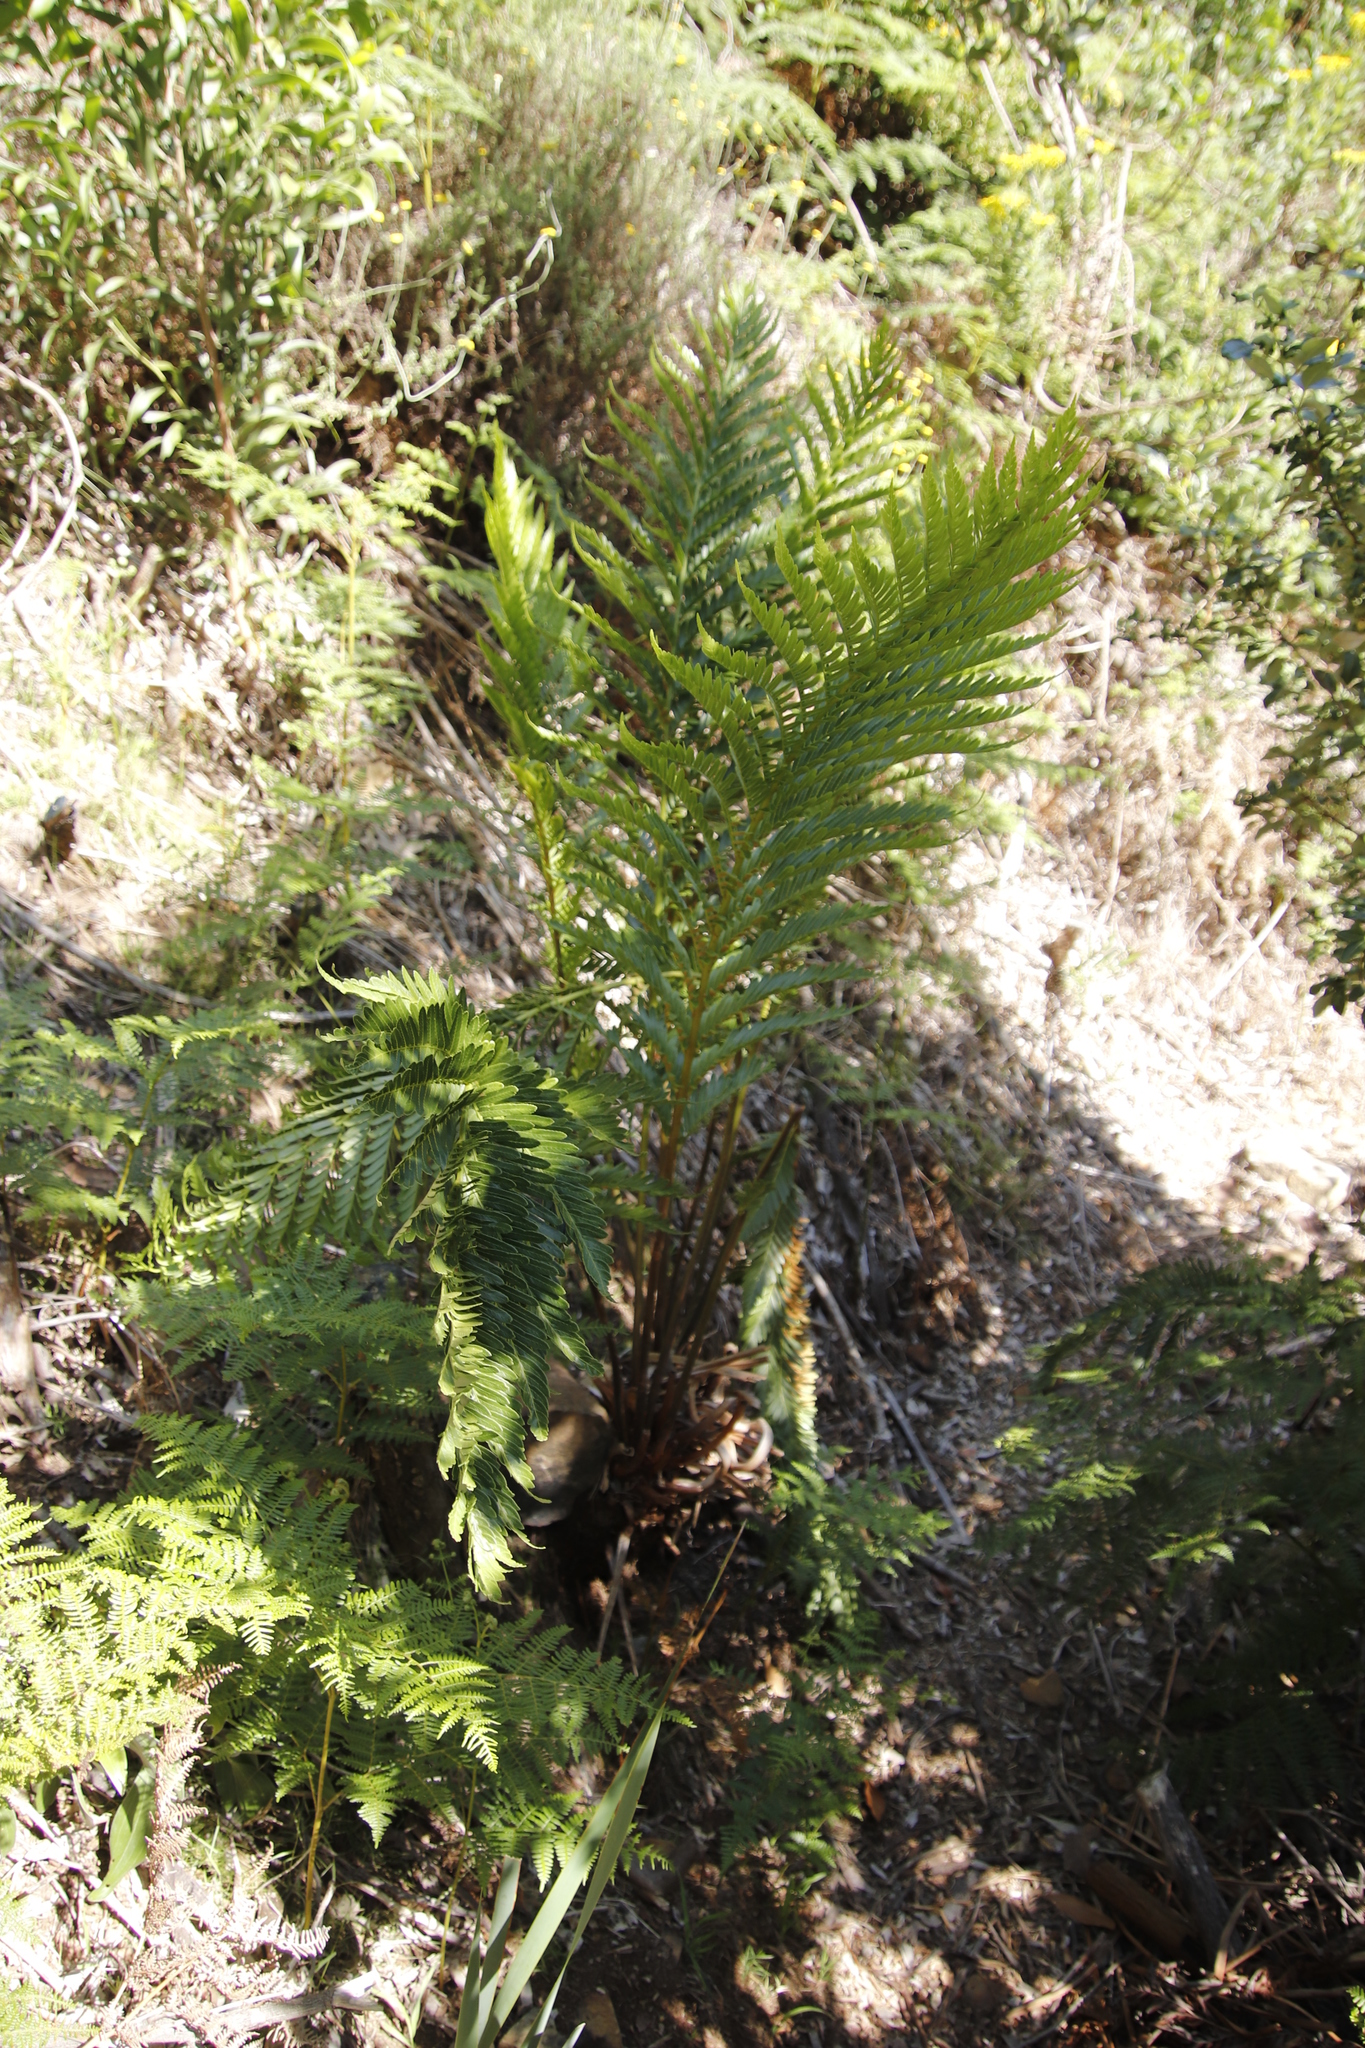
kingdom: Plantae
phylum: Tracheophyta
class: Polypodiopsida
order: Osmundales
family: Osmundaceae
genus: Todea
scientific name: Todea barbara
